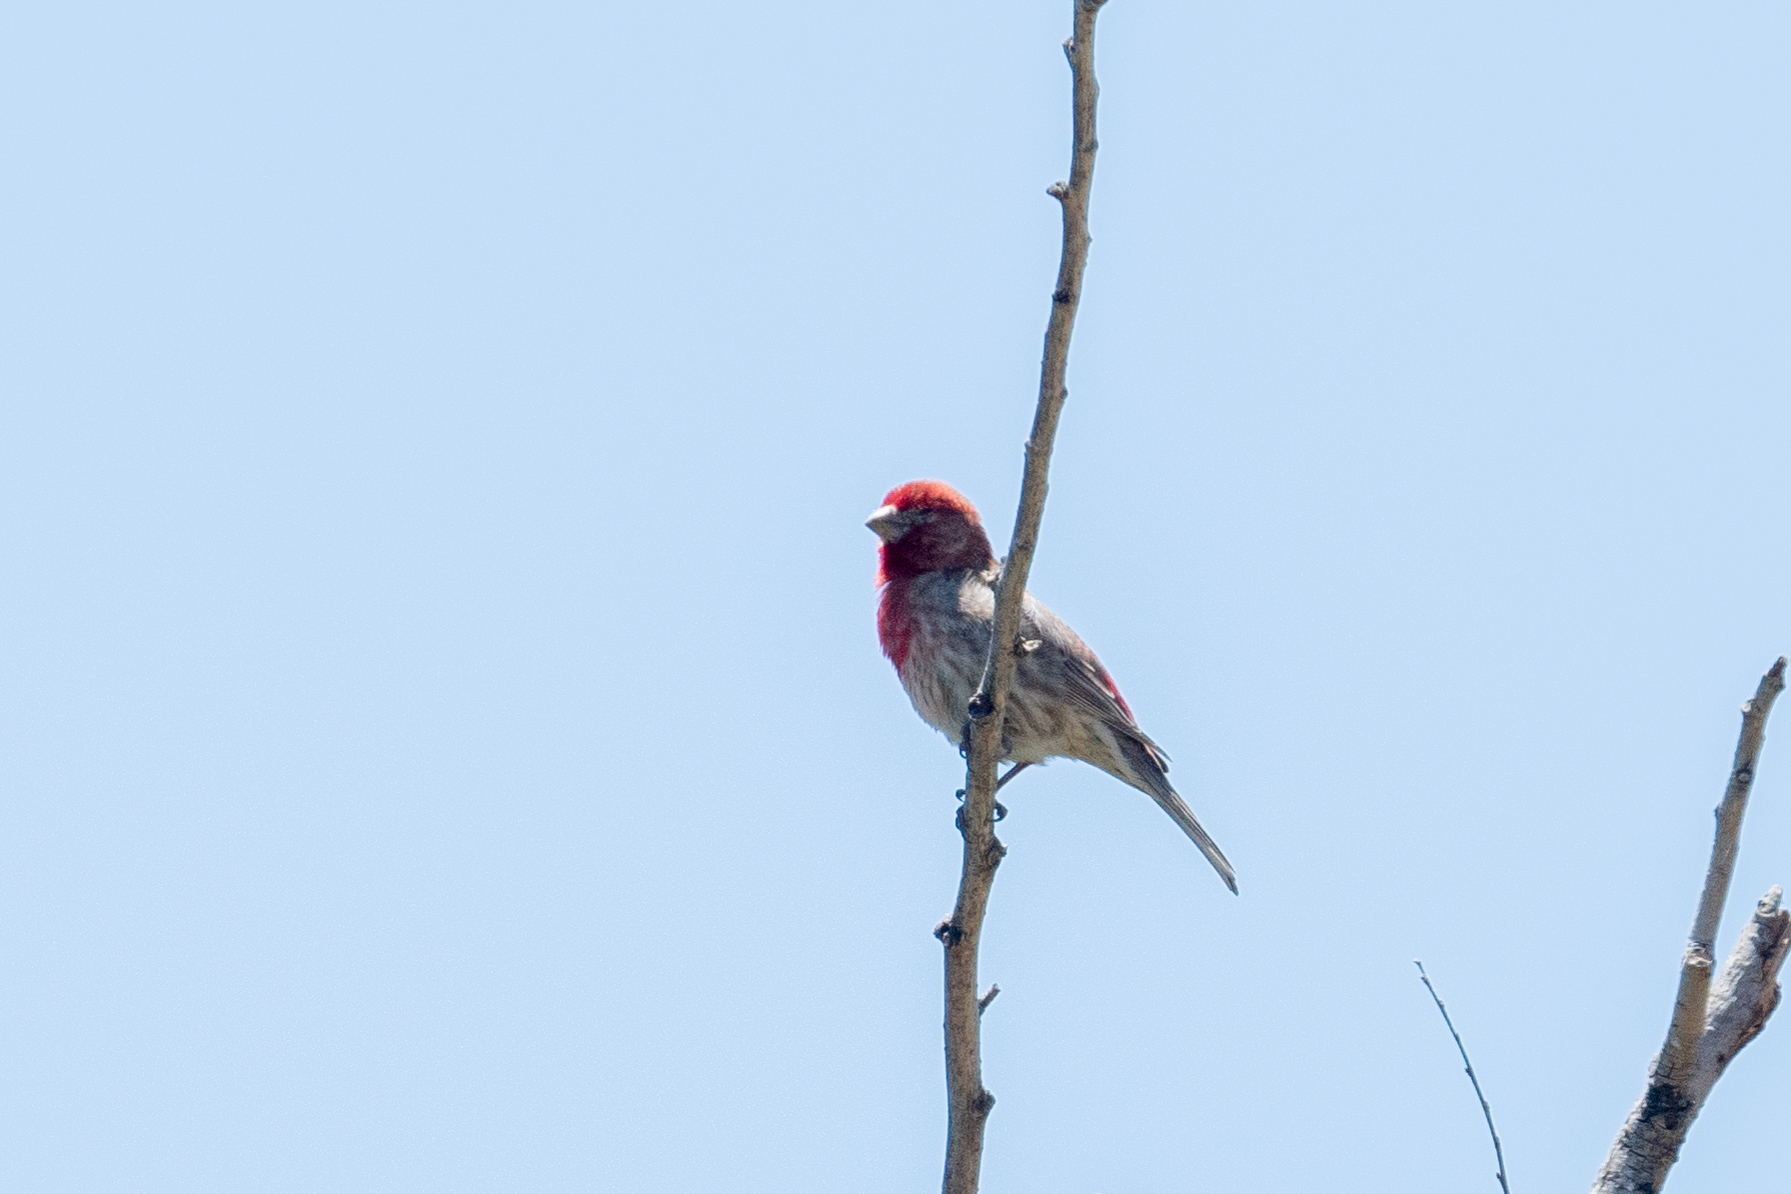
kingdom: Animalia
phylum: Chordata
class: Aves
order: Passeriformes
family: Fringillidae
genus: Haemorhous
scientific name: Haemorhous mexicanus
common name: House finch
